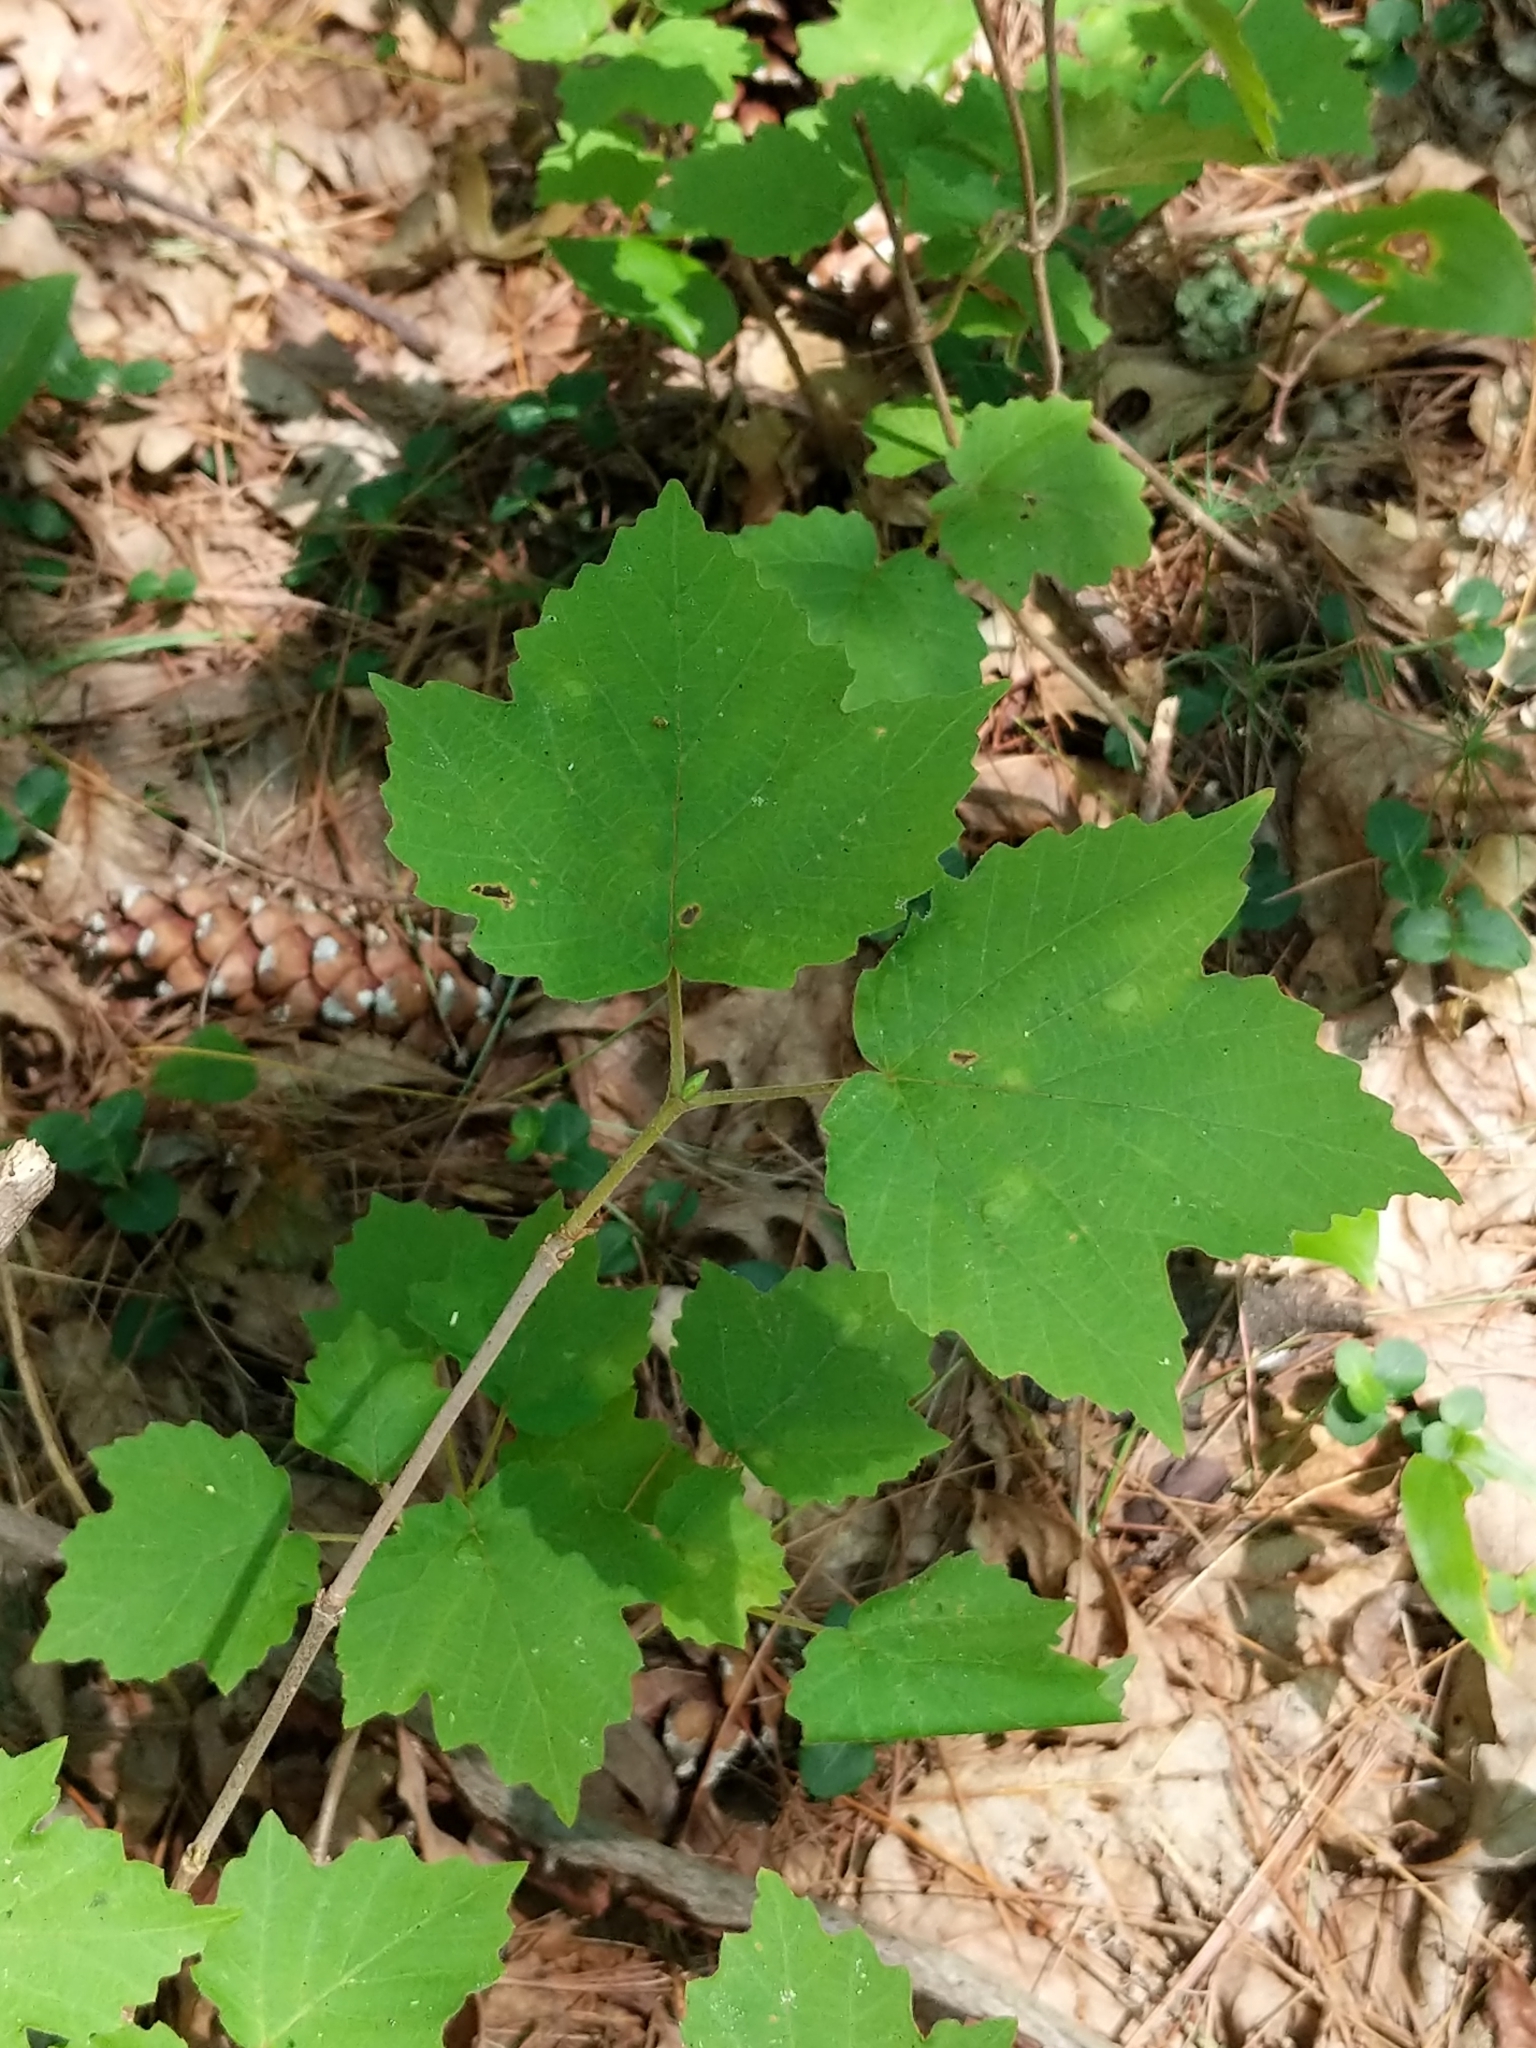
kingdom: Plantae
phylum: Tracheophyta
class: Magnoliopsida
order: Dipsacales
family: Viburnaceae
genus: Viburnum
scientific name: Viburnum acerifolium
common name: Dockmackie
